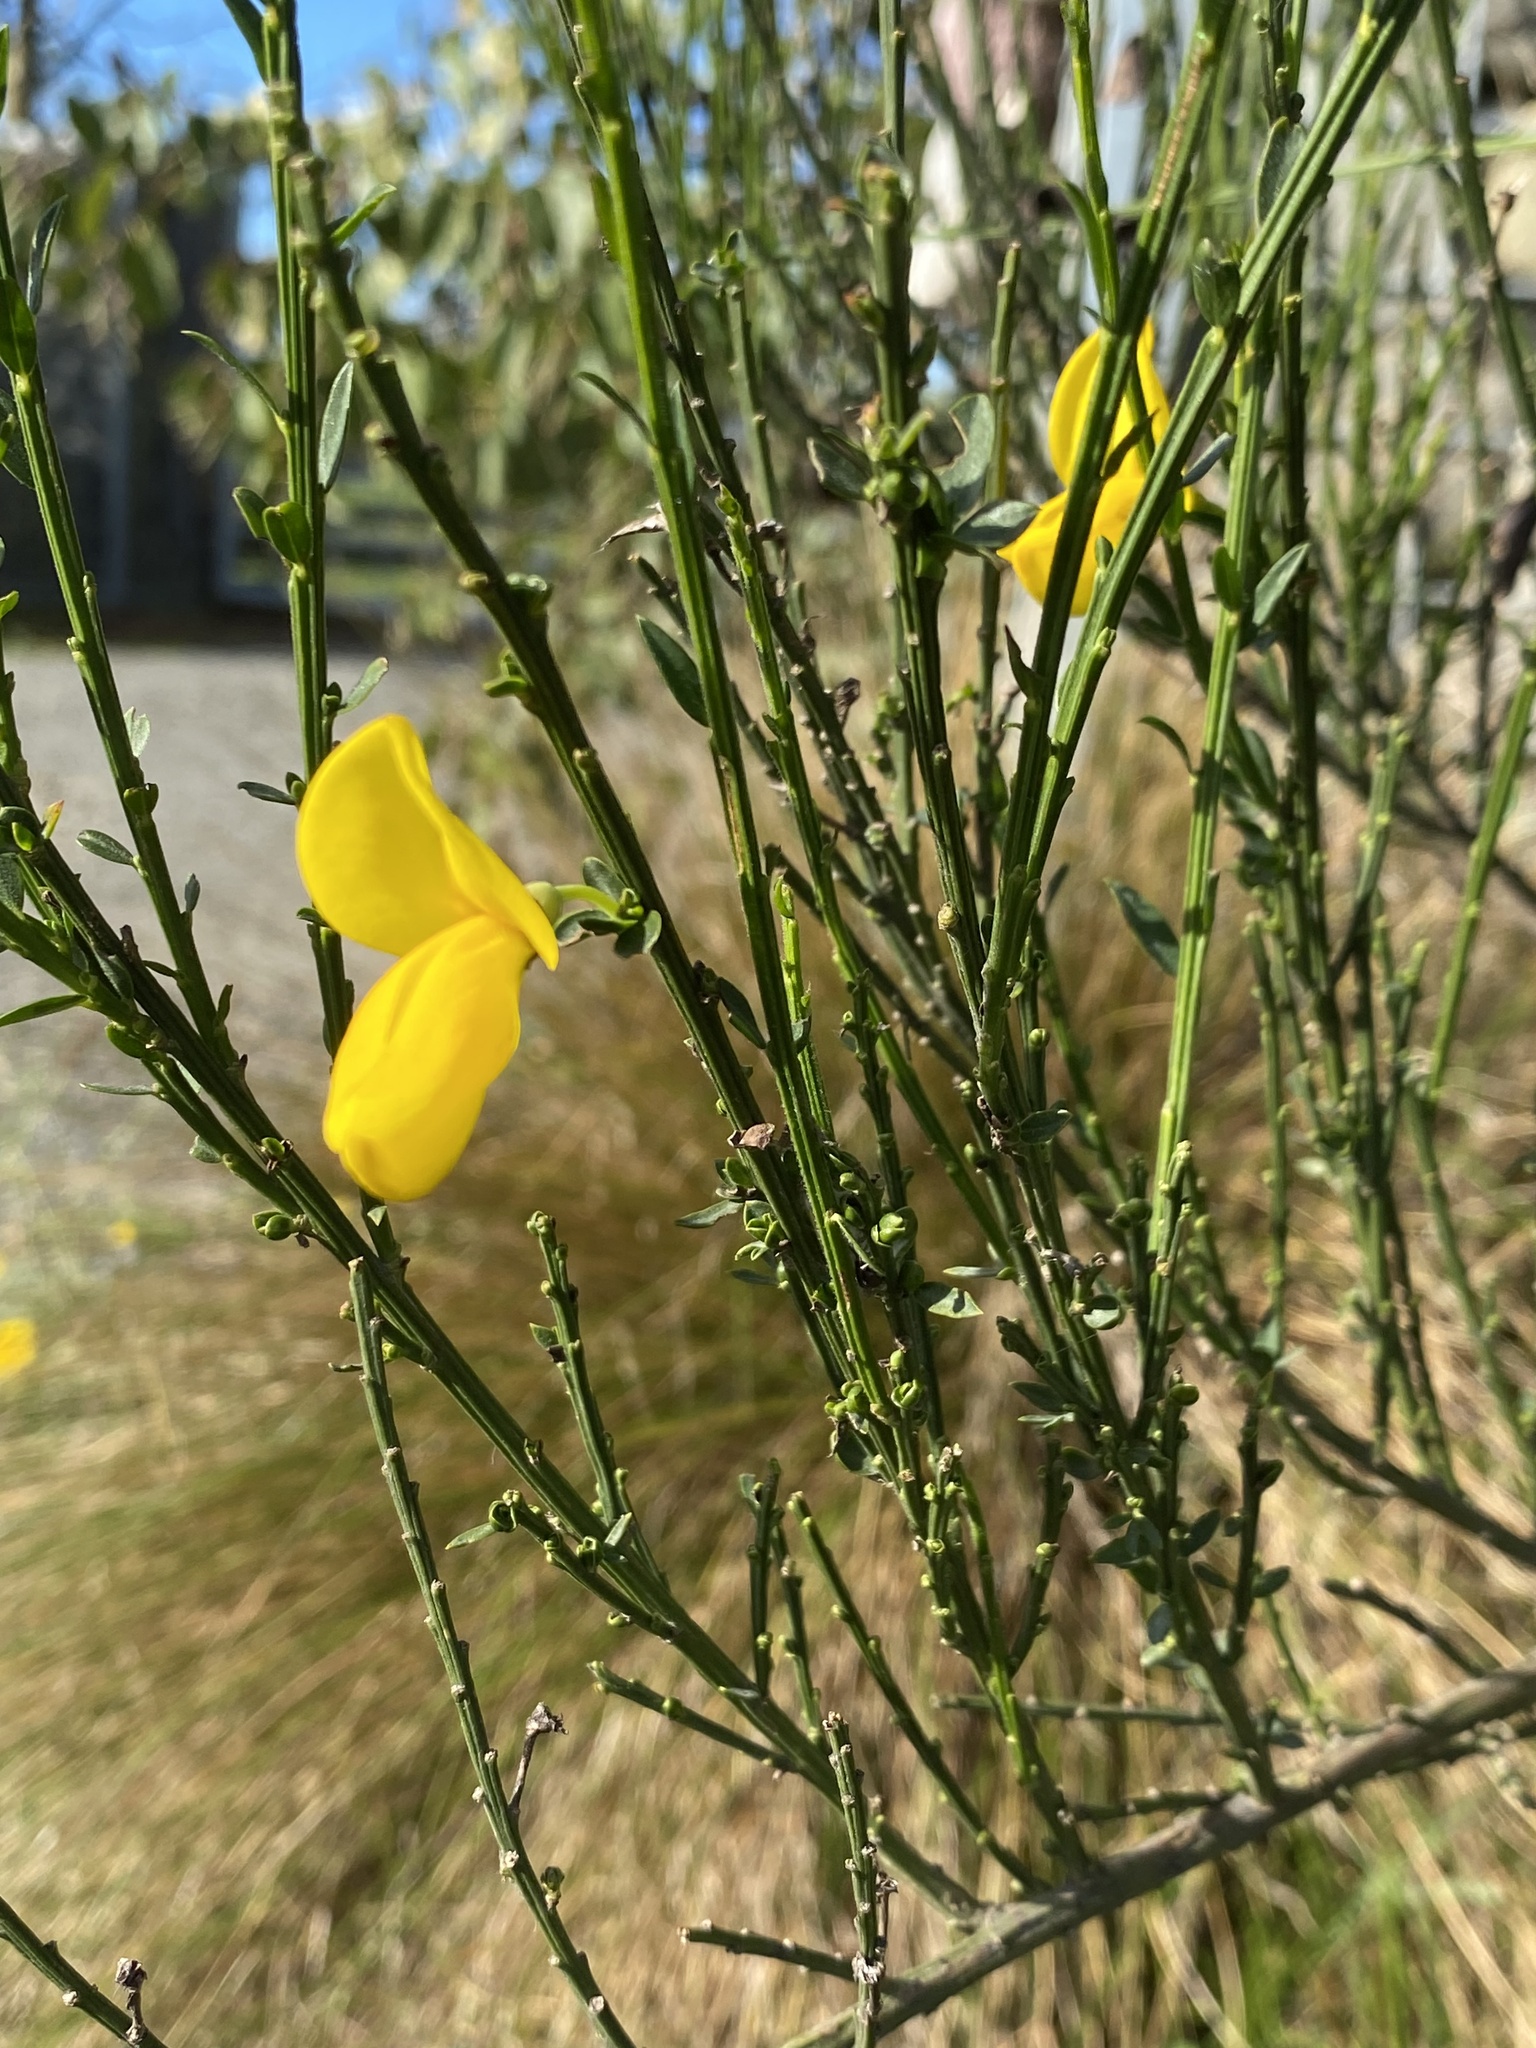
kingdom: Plantae
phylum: Tracheophyta
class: Magnoliopsida
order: Fabales
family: Fabaceae
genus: Cytisus
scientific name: Cytisus scoparius
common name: Scotch broom
